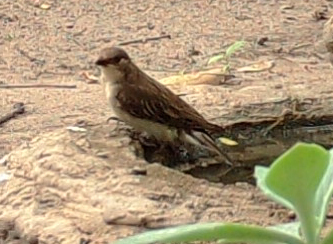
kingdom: Animalia
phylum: Chordata
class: Aves
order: Piciformes
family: Indicatoridae
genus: Indicator
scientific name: Indicator indicator
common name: Greater honeyguide
